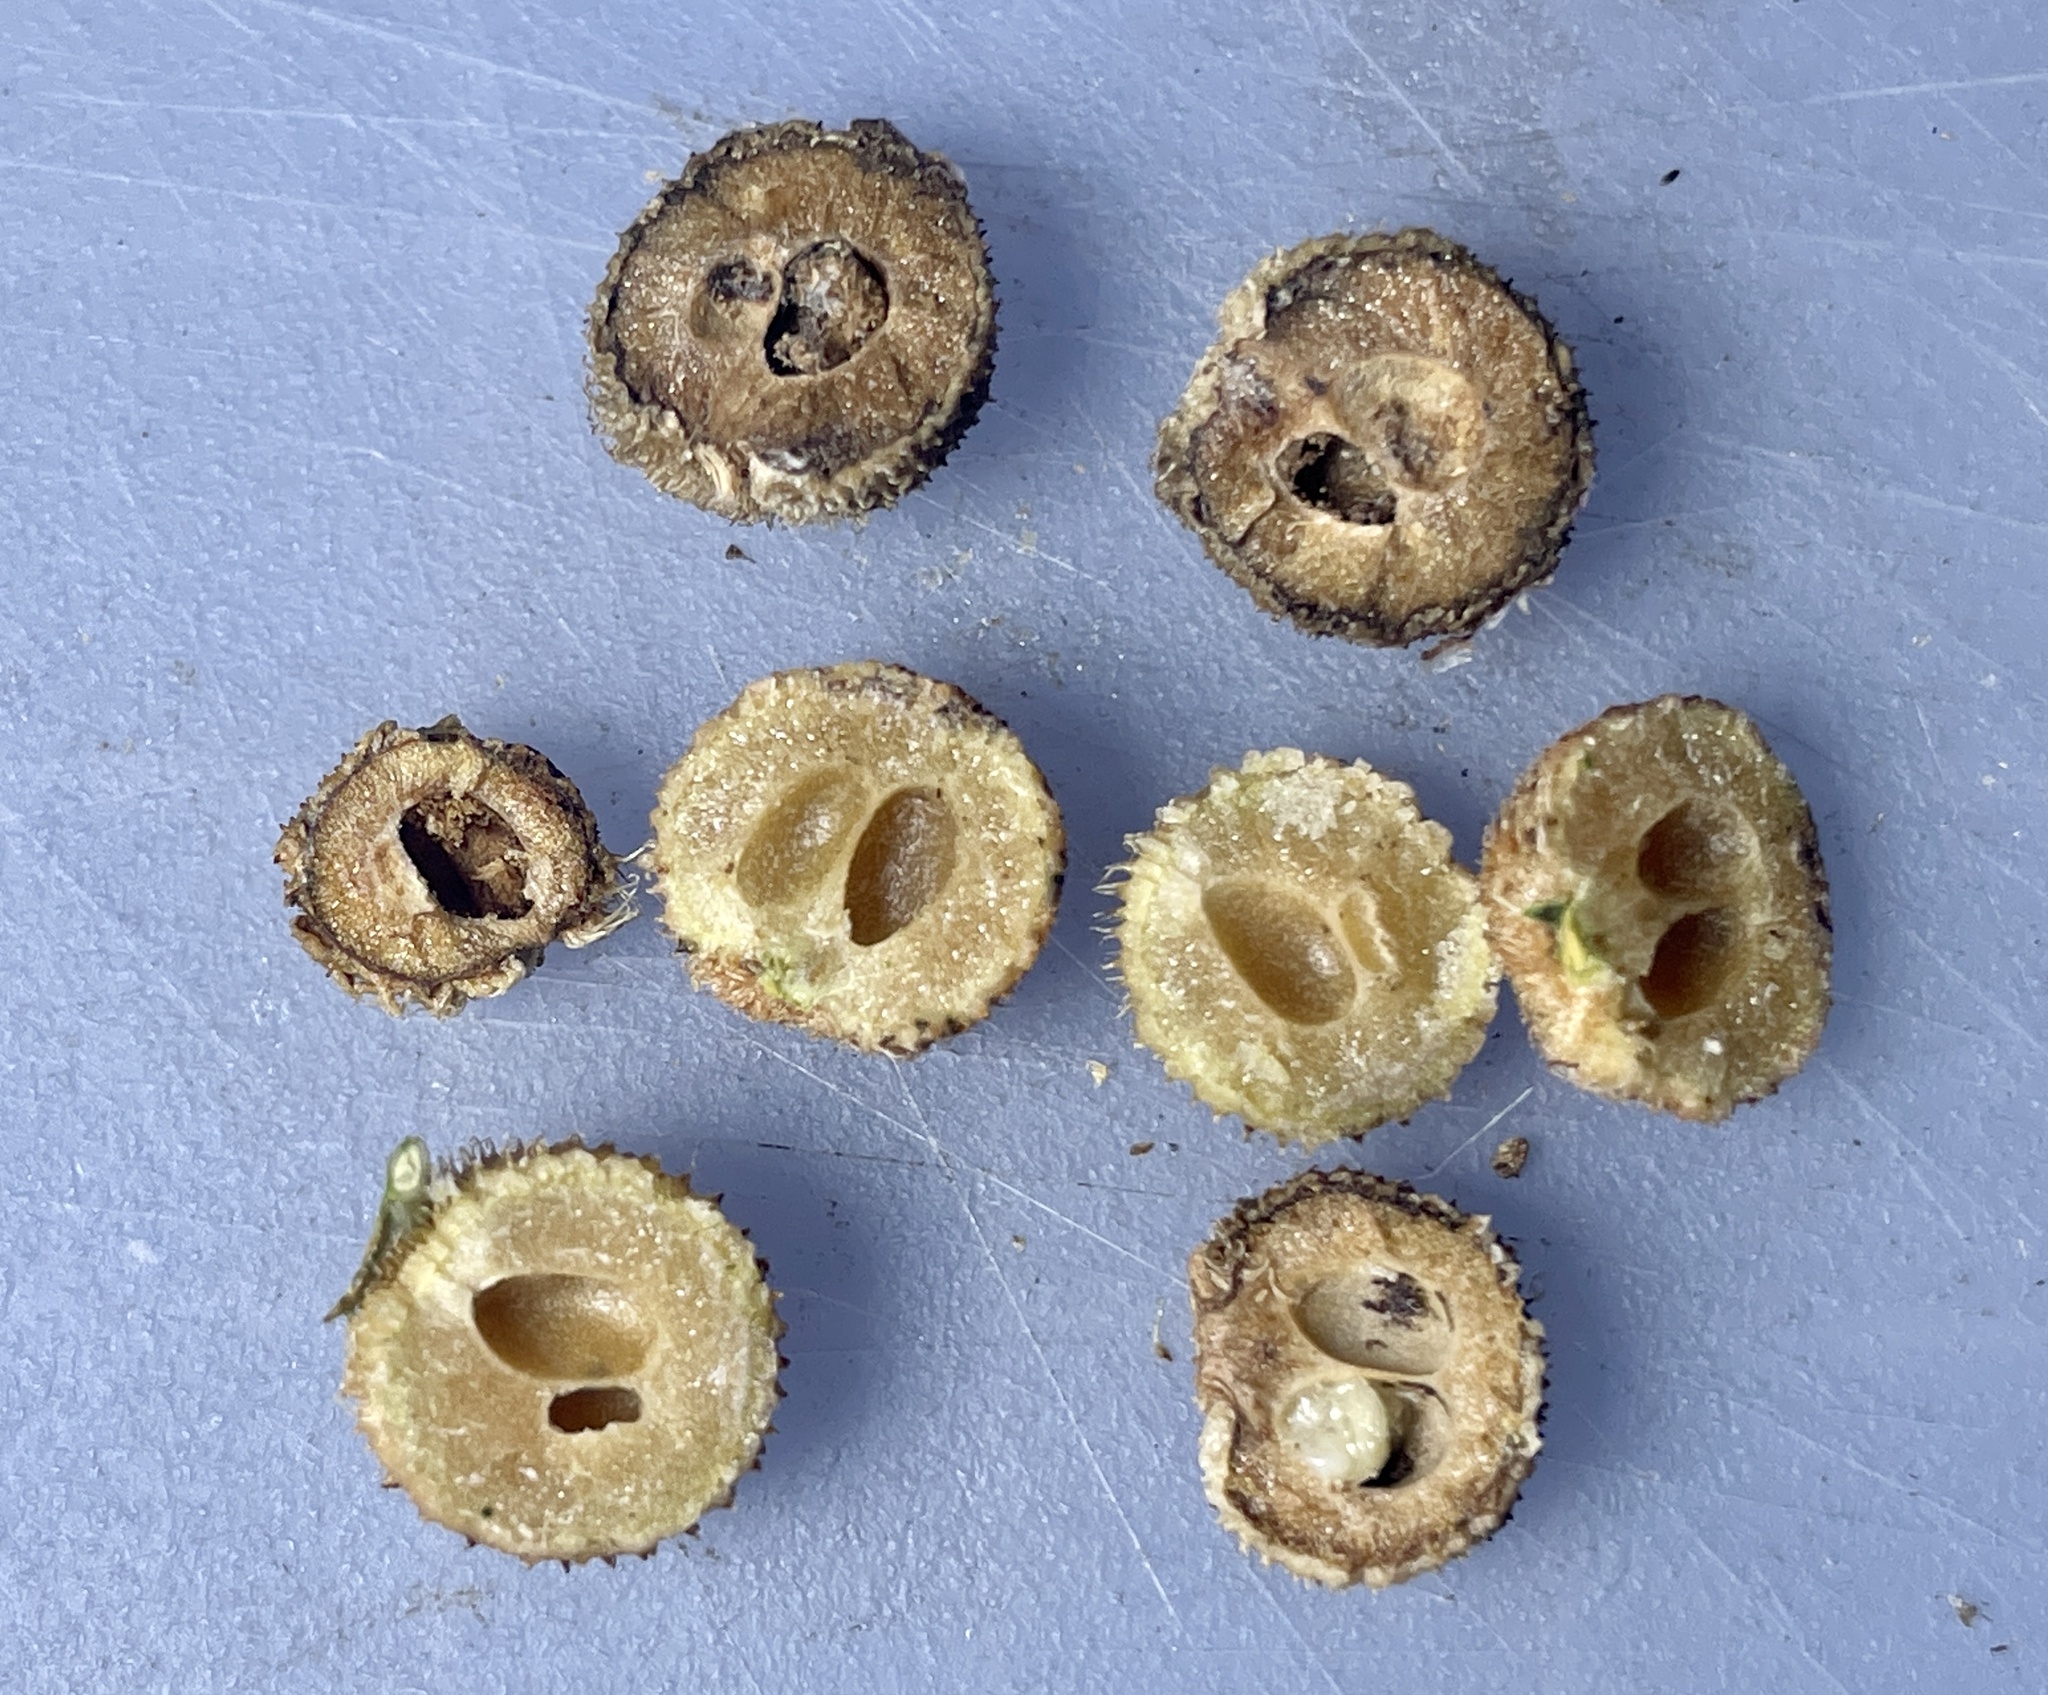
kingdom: Animalia
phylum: Arthropoda
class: Insecta
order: Hymenoptera
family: Cynipidae
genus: Acraspis
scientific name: Acraspis erinacei
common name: Hedgehog gall wasp
